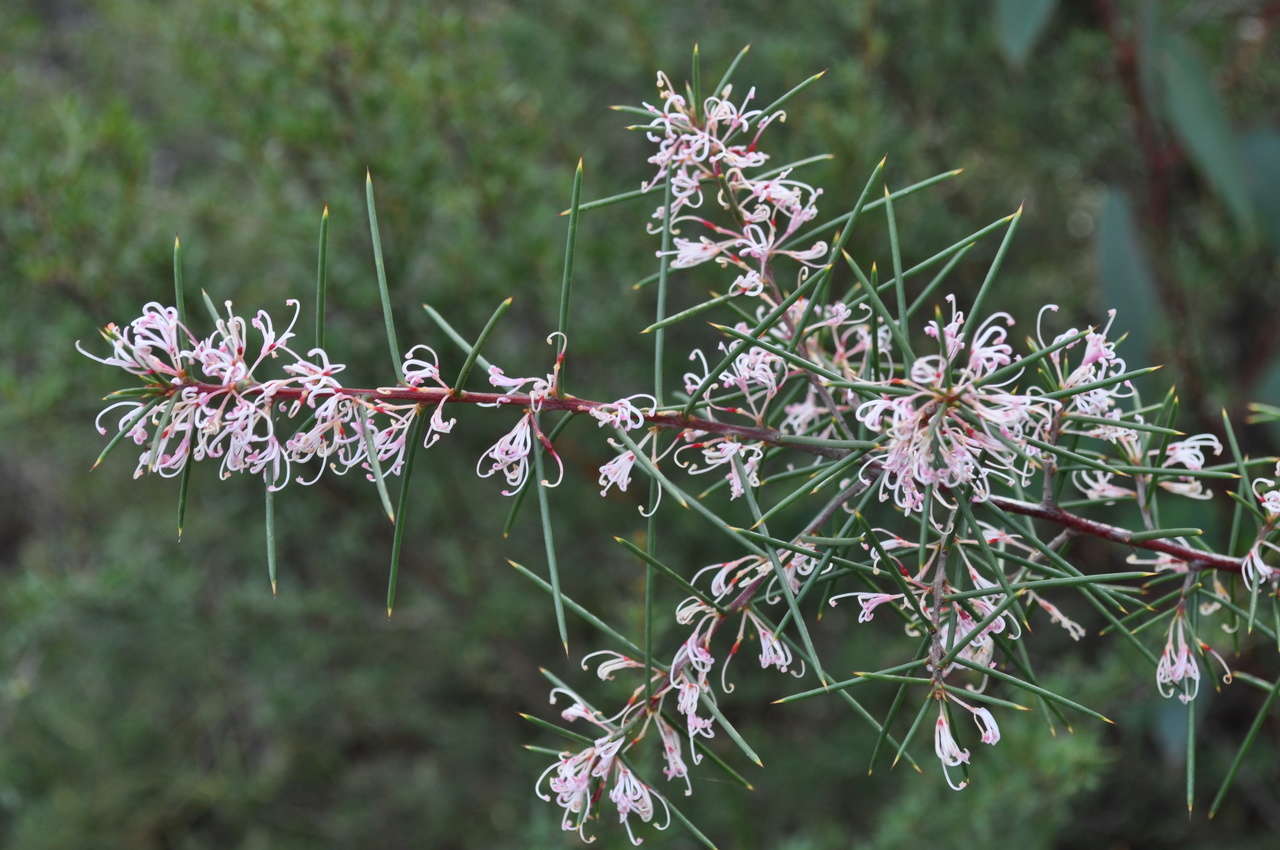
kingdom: Plantae
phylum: Tracheophyta
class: Magnoliopsida
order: Proteales
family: Proteaceae
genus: Hakea
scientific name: Hakea decurrens
